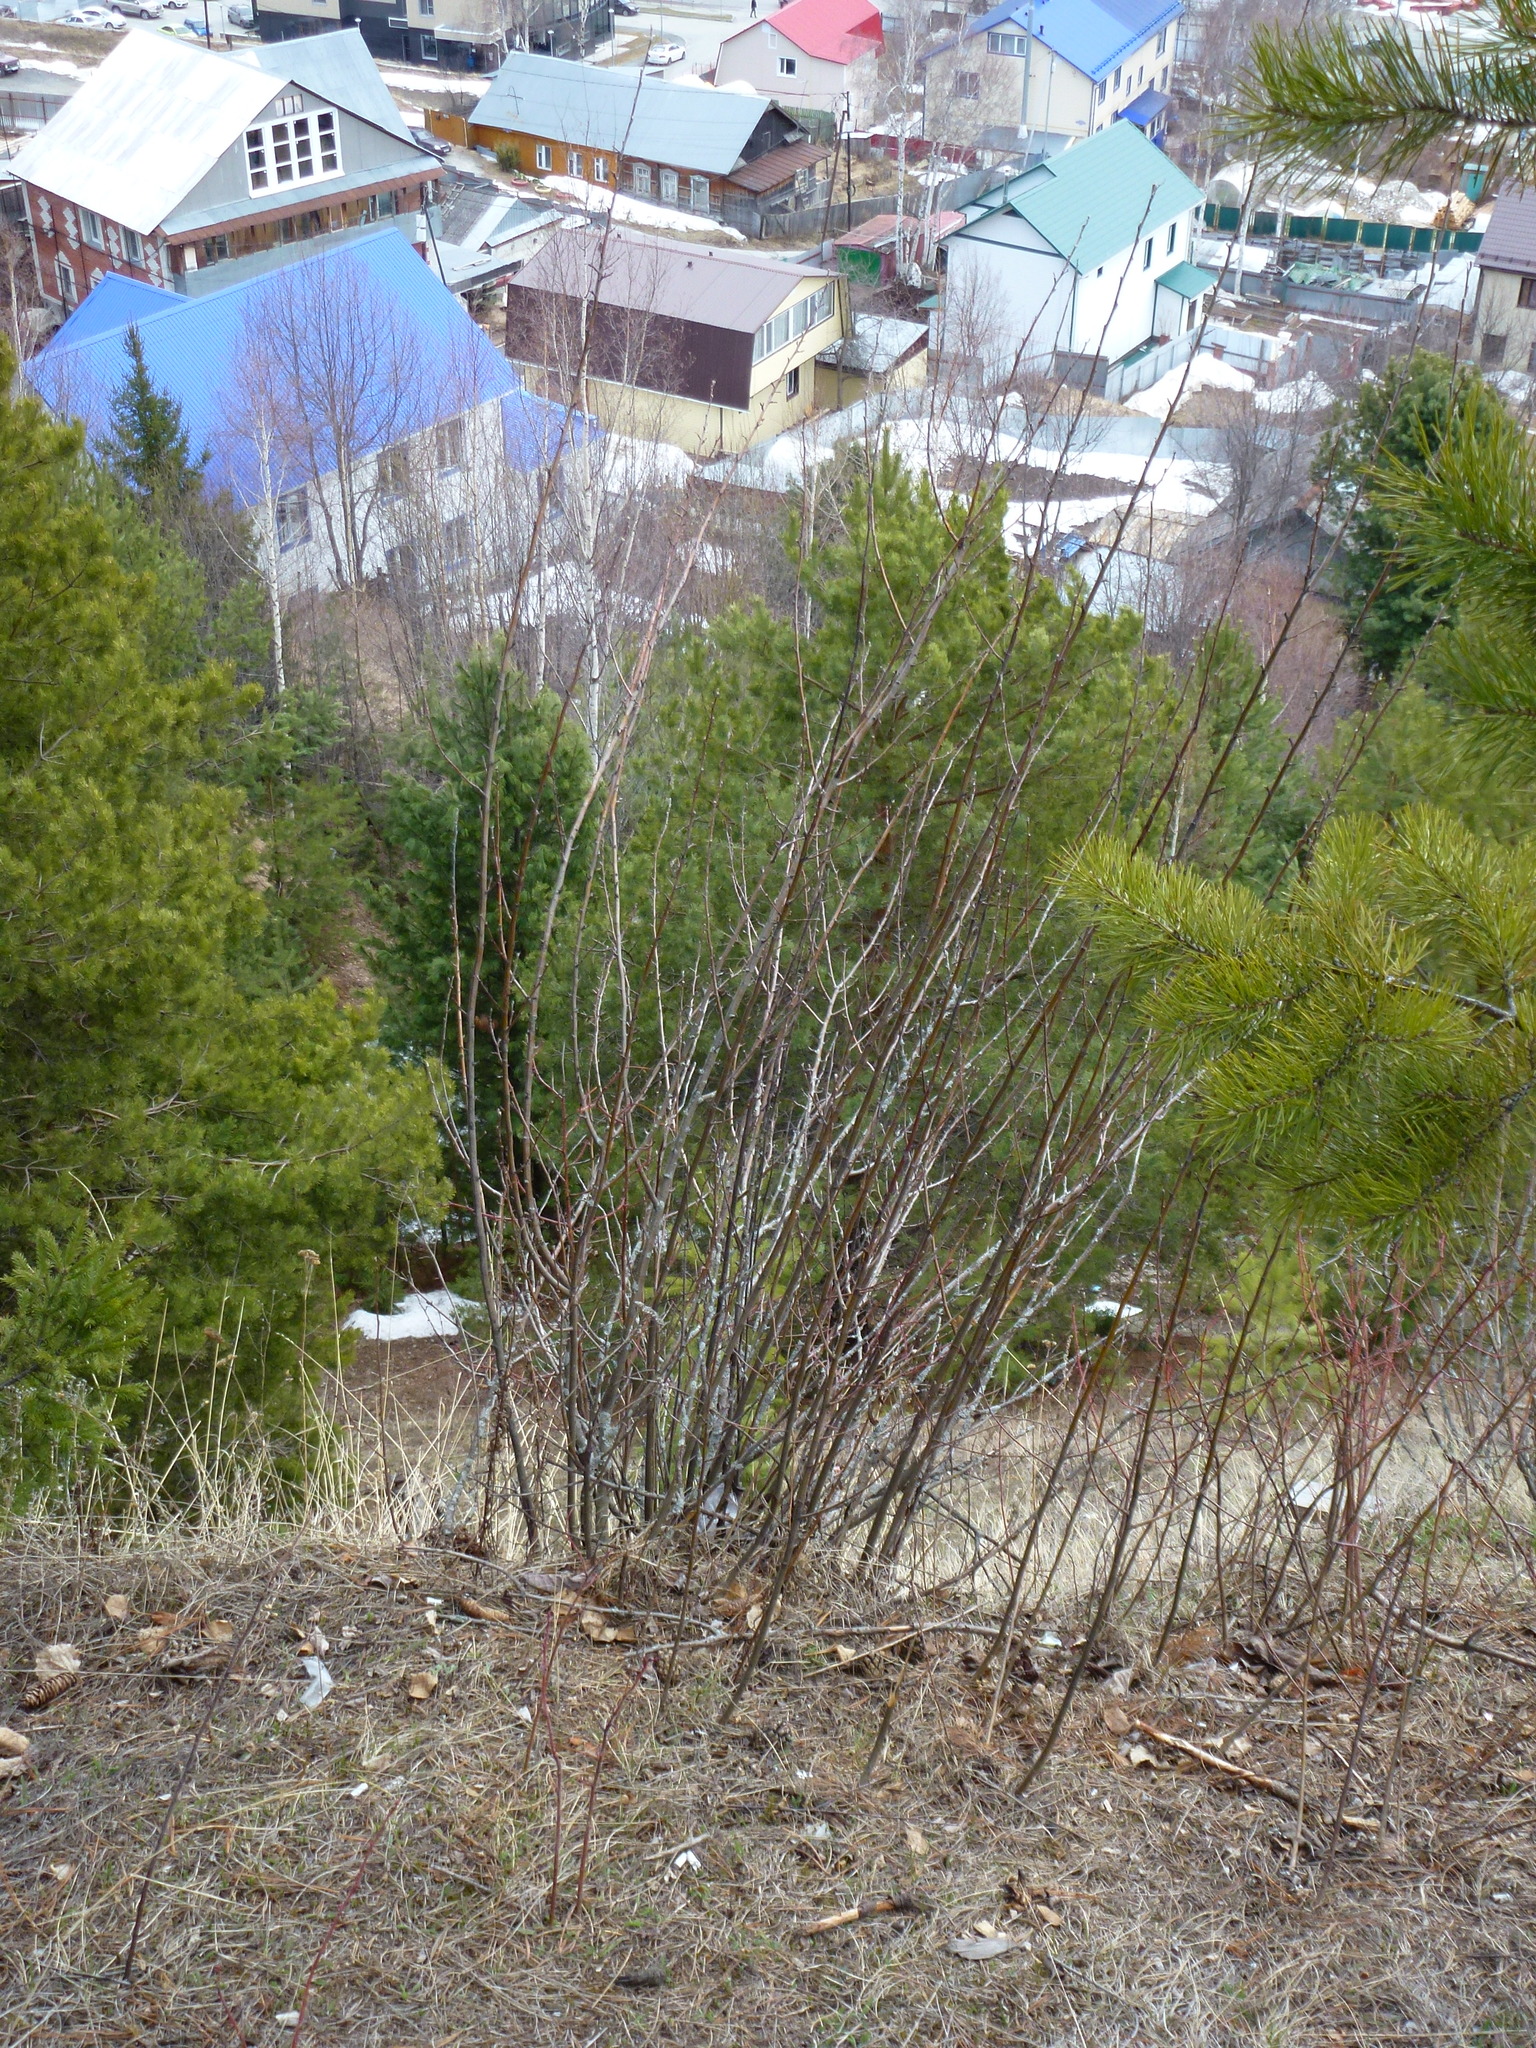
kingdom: Plantae
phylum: Tracheophyta
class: Magnoliopsida
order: Rosales
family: Rosaceae
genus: Cotoneaster
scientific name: Cotoneaster melanocarpus
